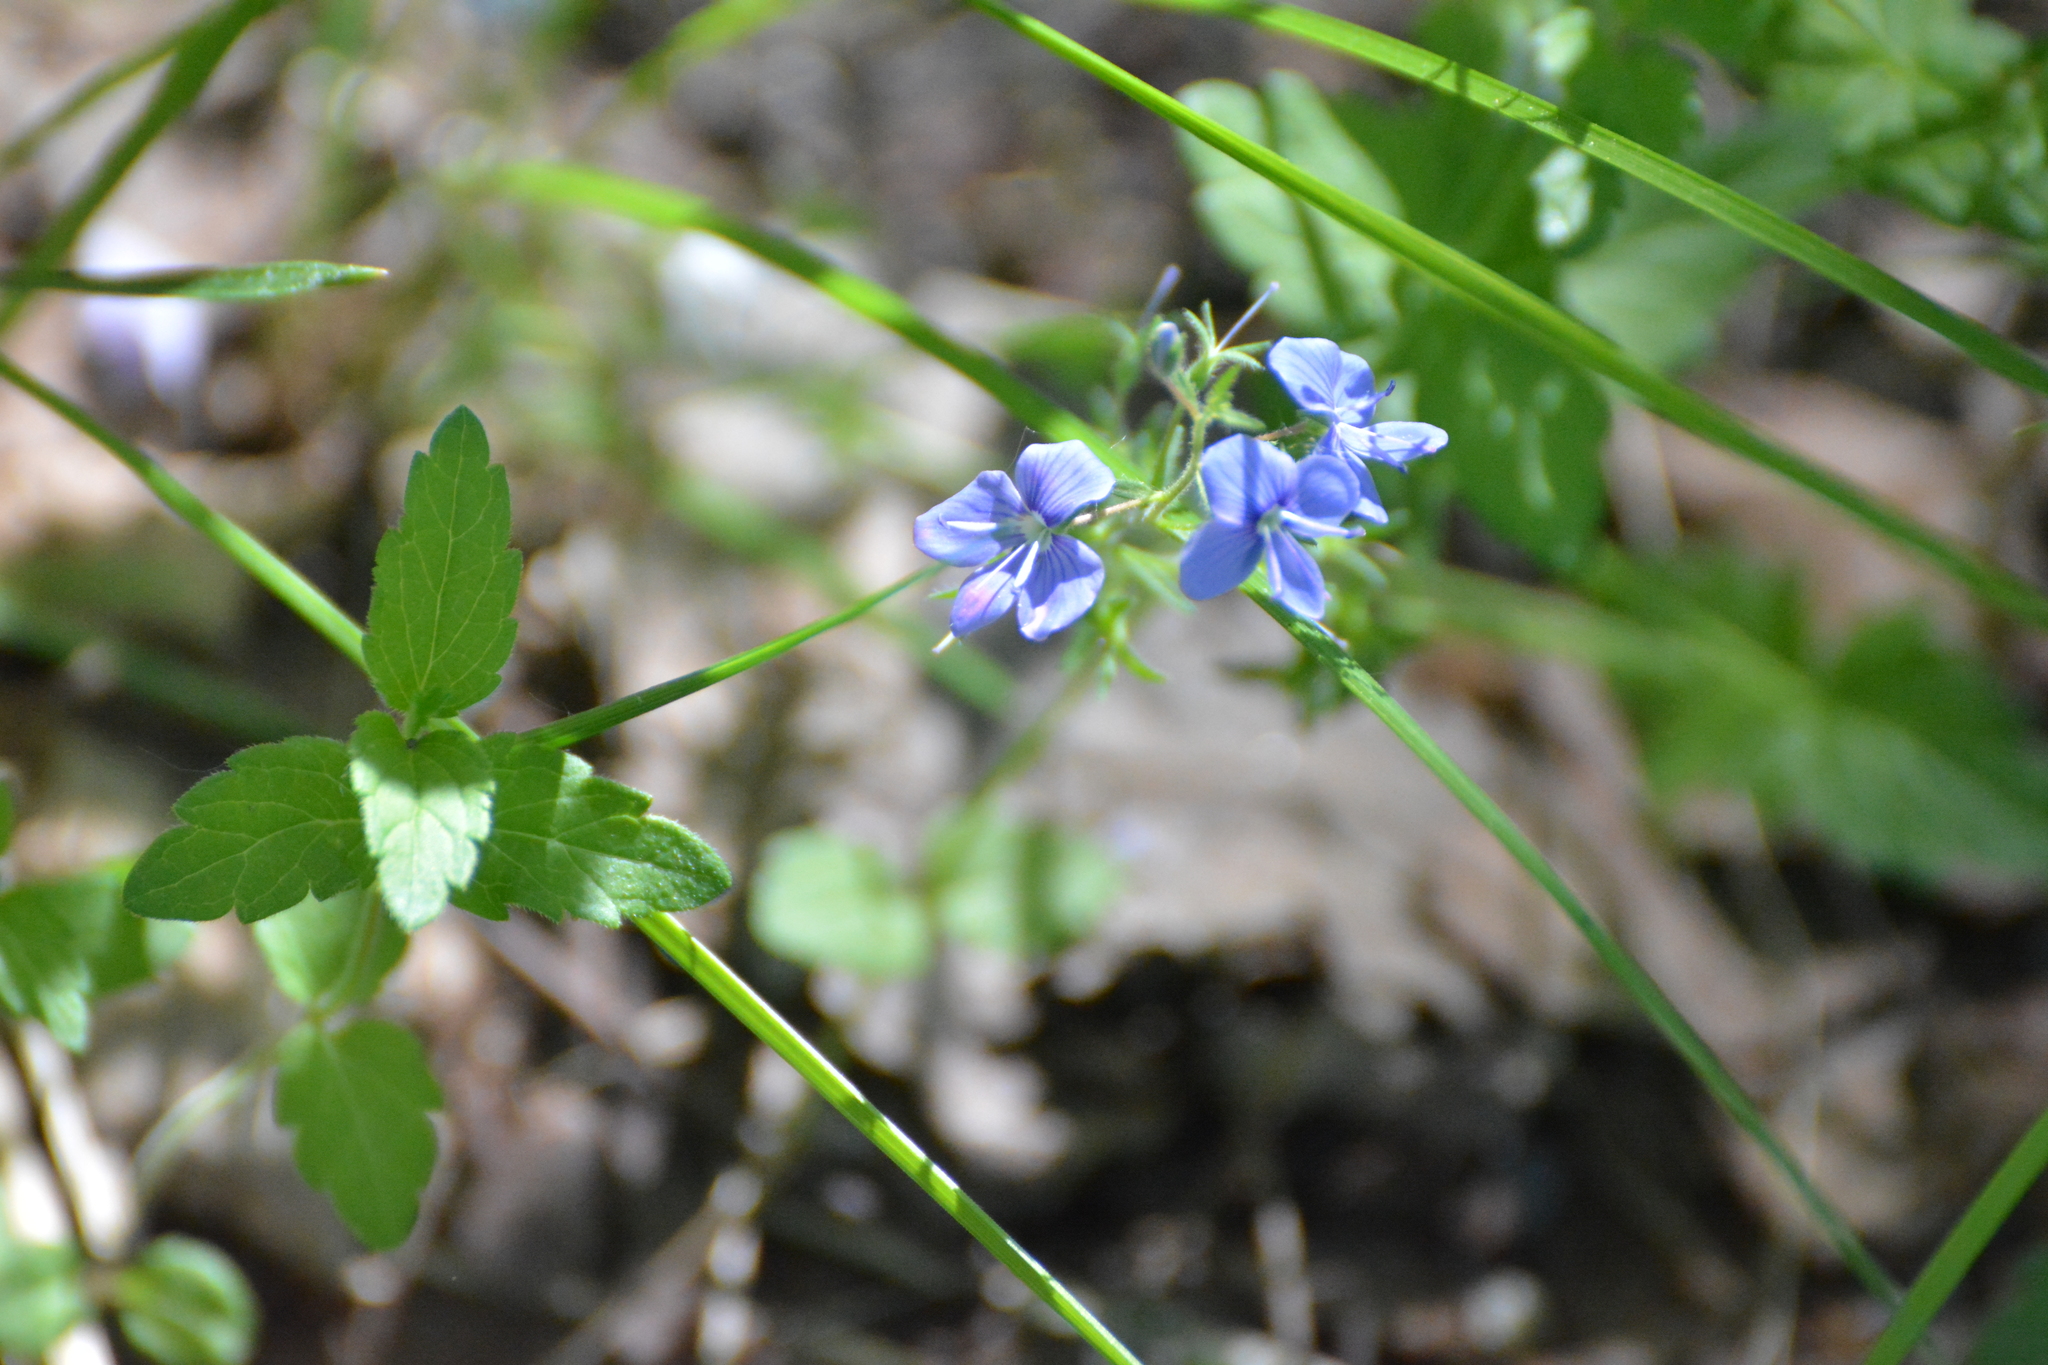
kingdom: Plantae
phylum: Tracheophyta
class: Magnoliopsida
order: Lamiales
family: Plantaginaceae
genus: Veronica
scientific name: Veronica chamaedrys
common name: Germander speedwell
